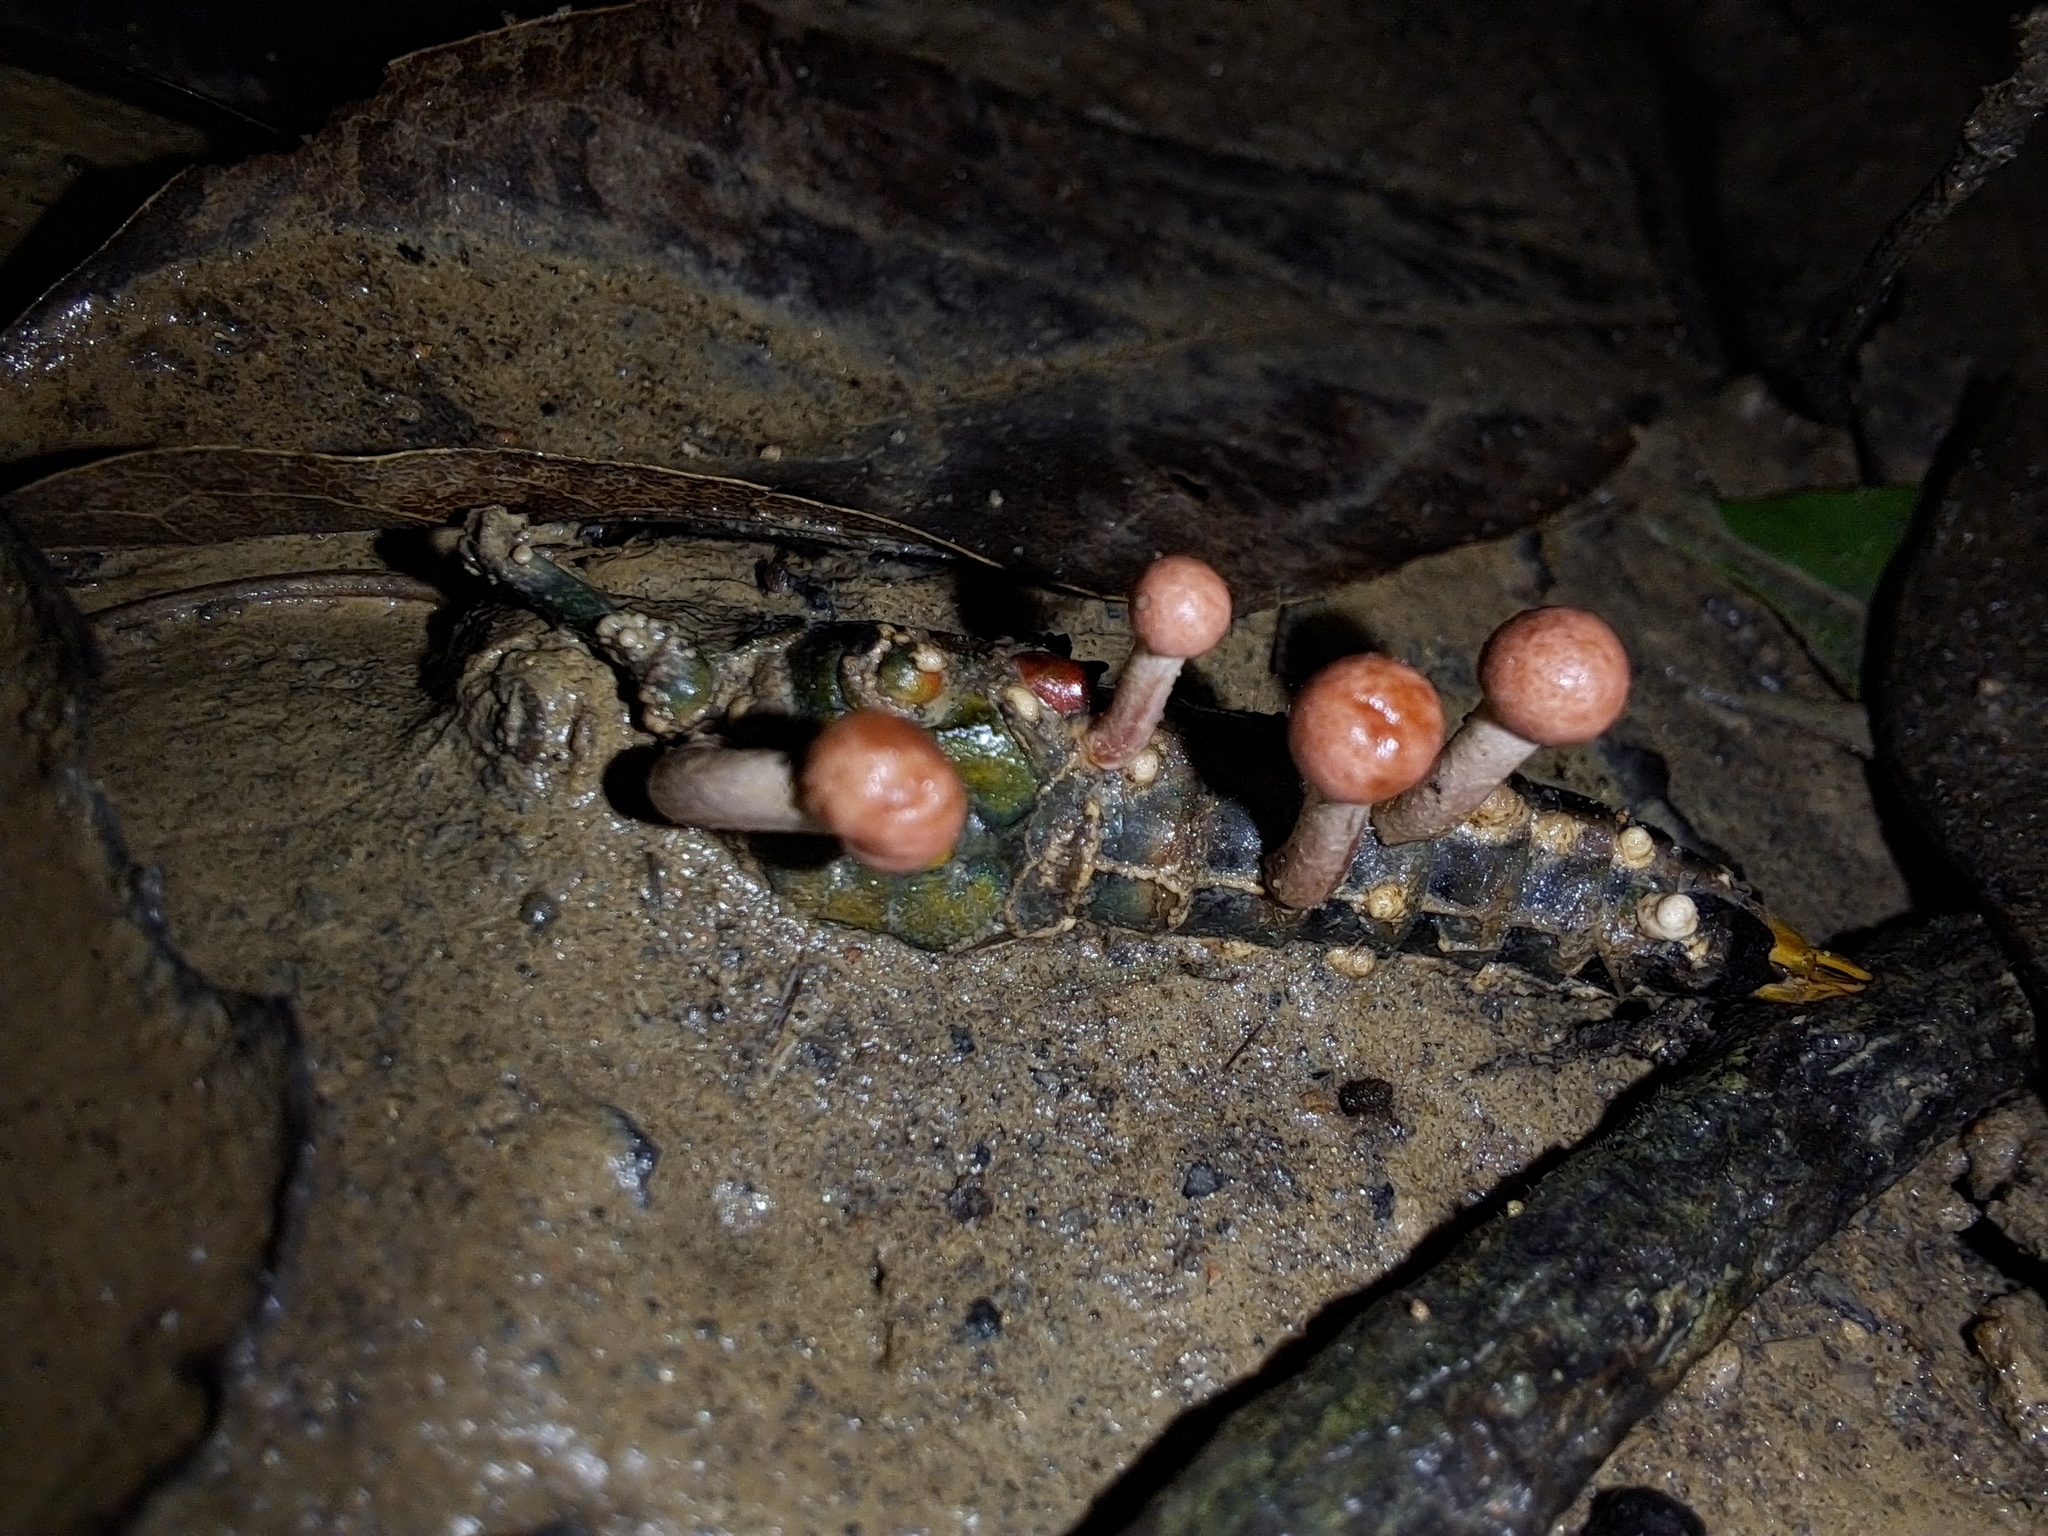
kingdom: Fungi
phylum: Ascomycota
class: Sordariomycetes
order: Hypocreales
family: Ophiocordycipitaceae
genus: Paraisaria
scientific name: Paraisaria amazonica
